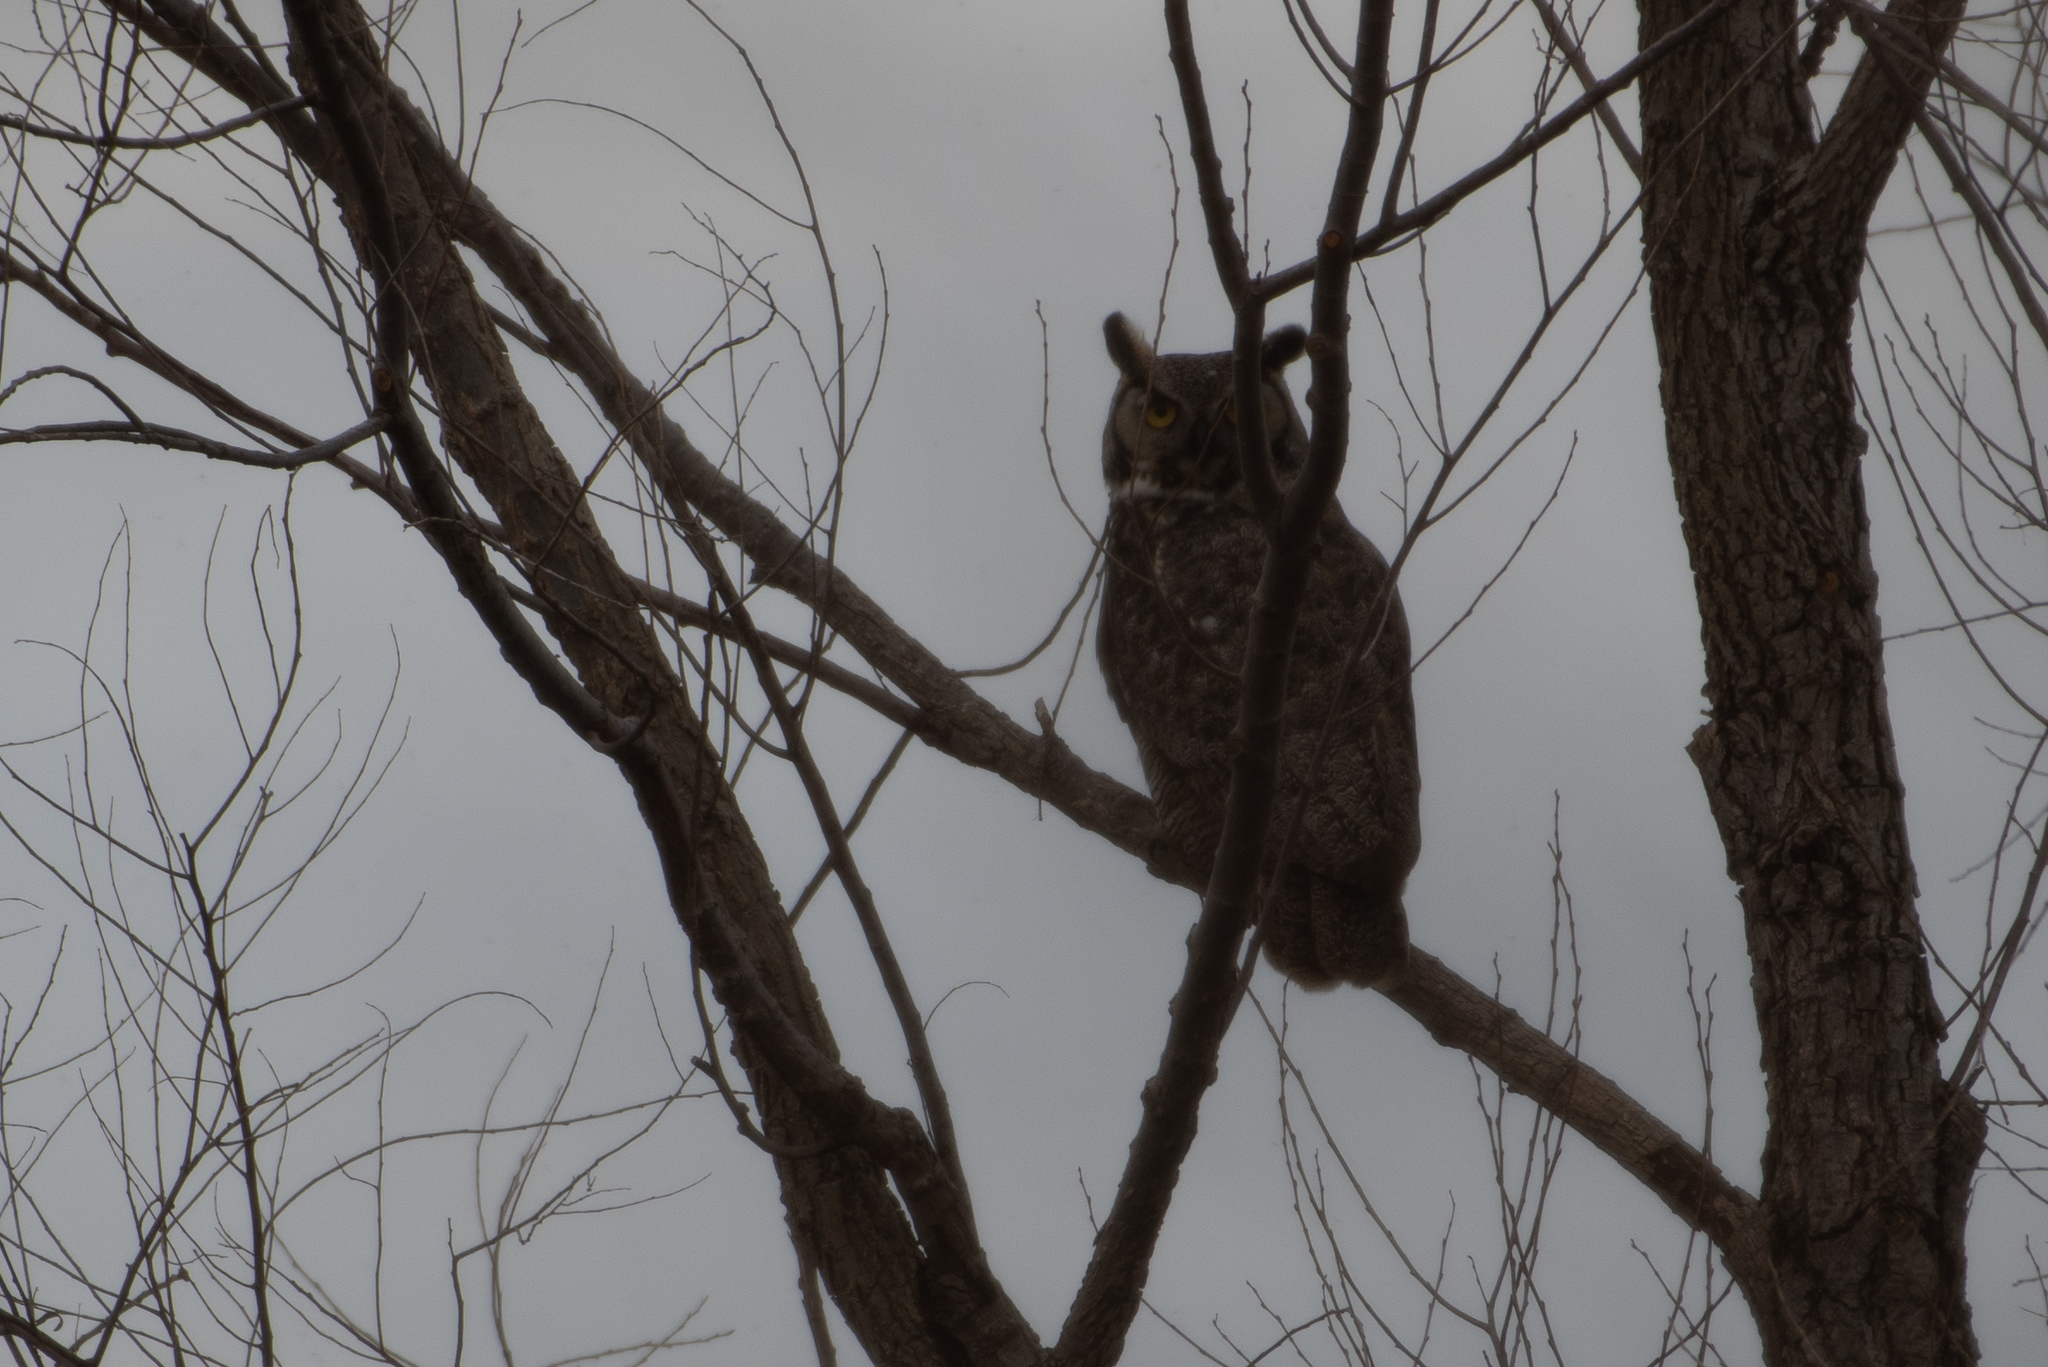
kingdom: Animalia
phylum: Chordata
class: Aves
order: Strigiformes
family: Strigidae
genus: Bubo
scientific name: Bubo virginianus
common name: Great horned owl
